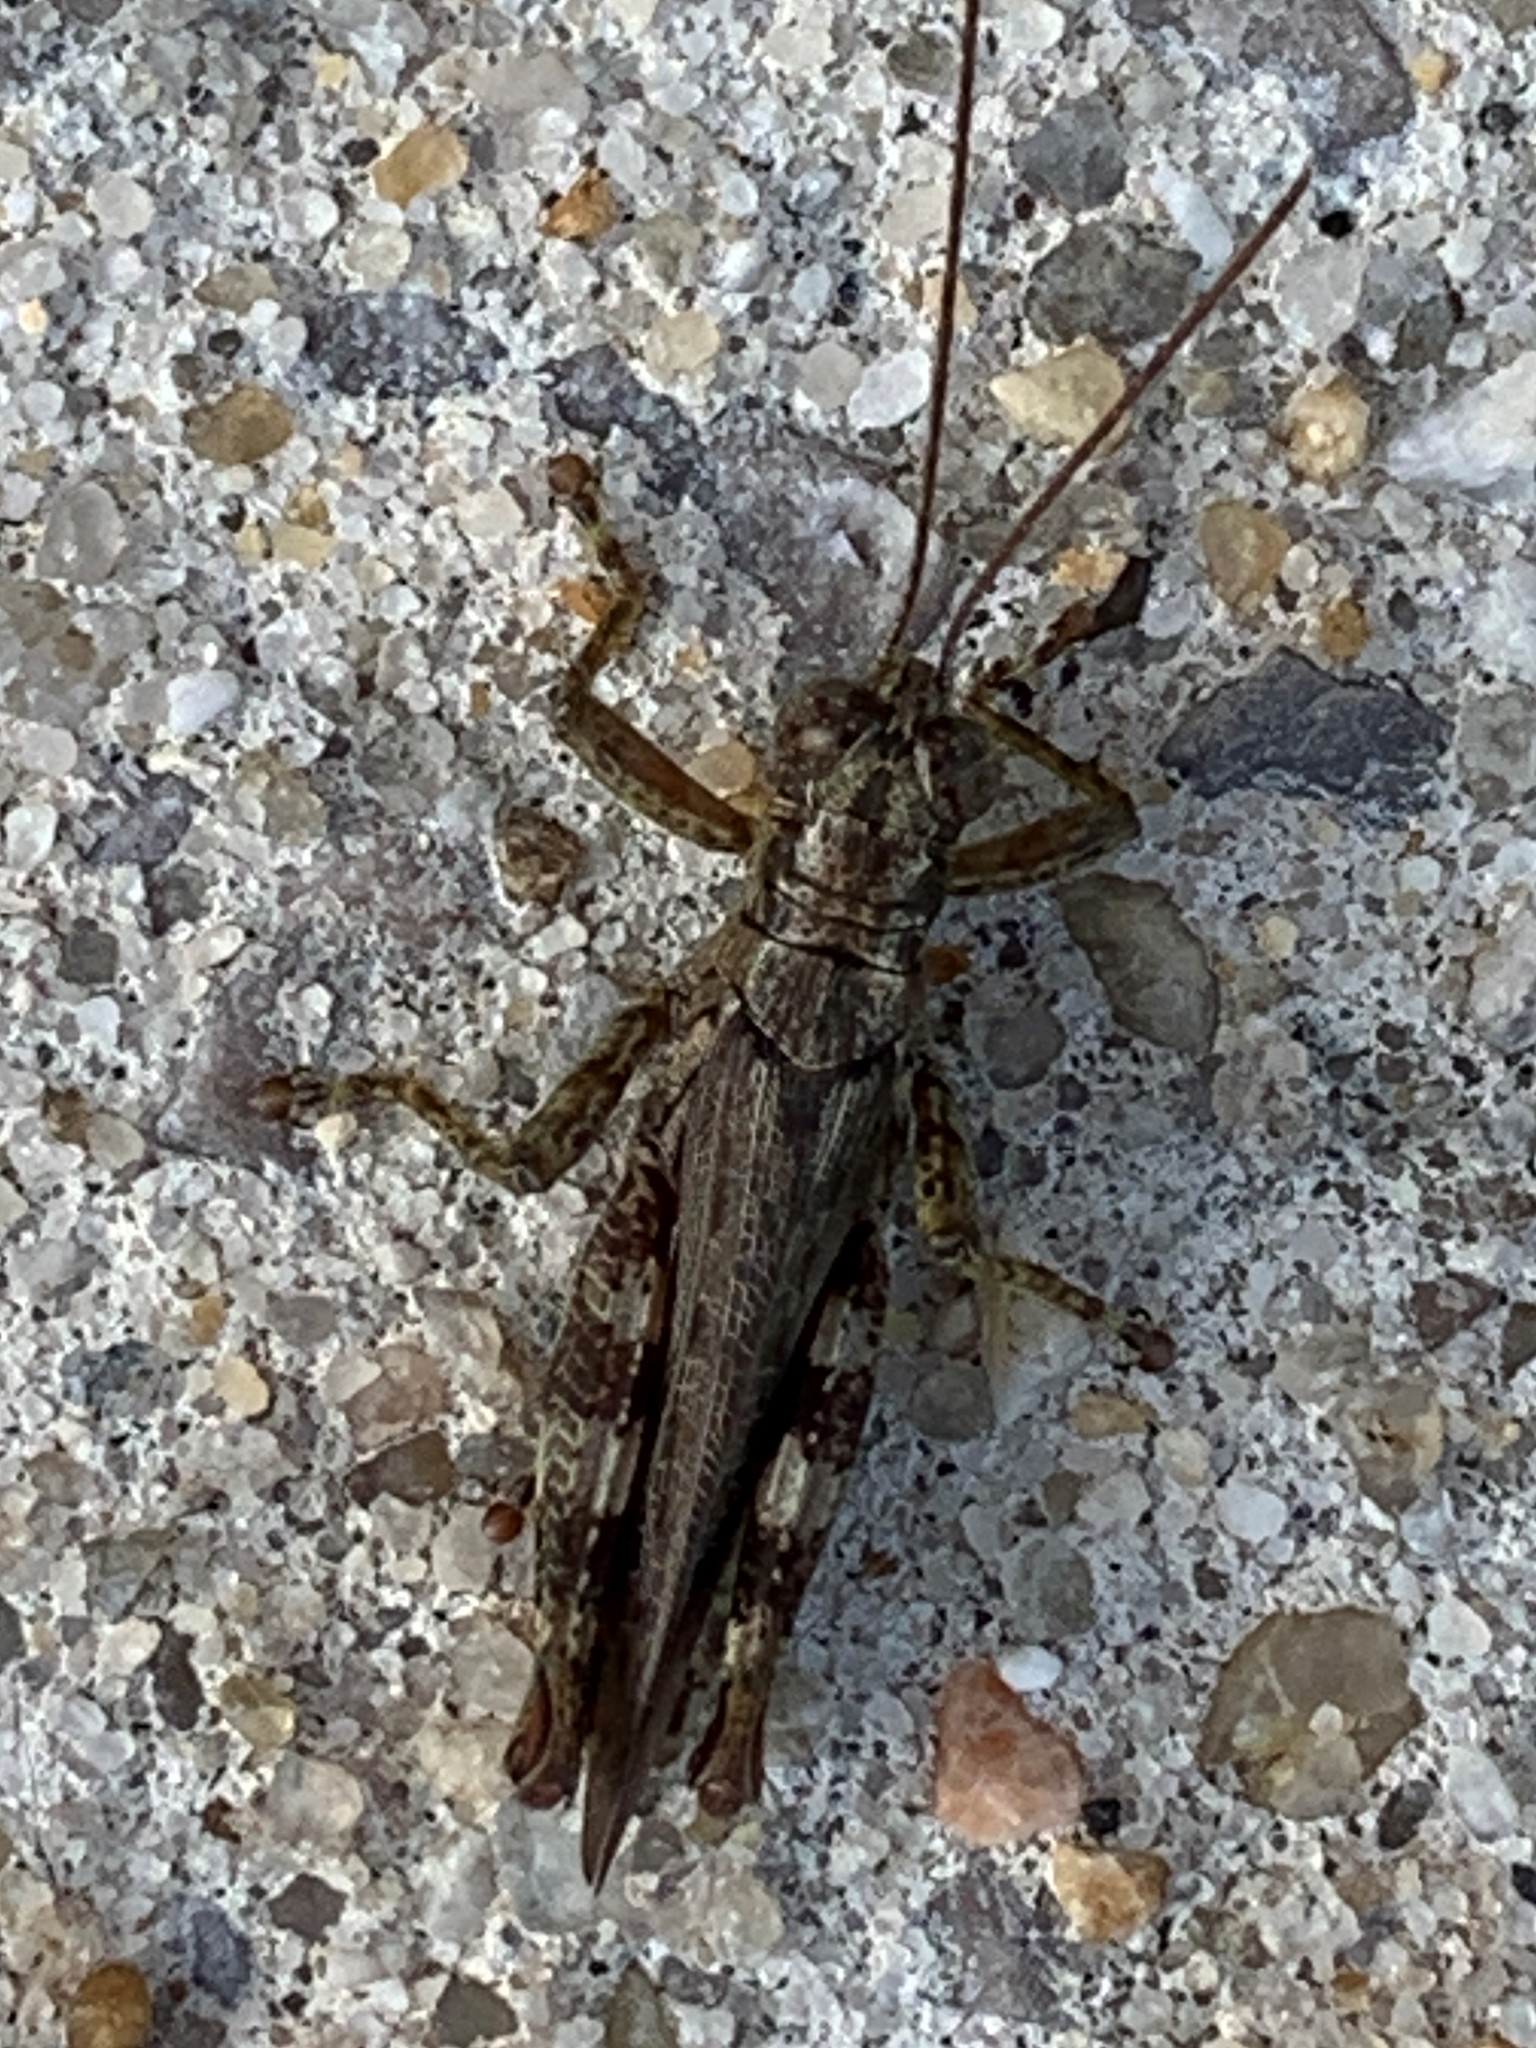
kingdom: Animalia
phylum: Arthropoda
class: Insecta
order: Orthoptera
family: Acrididae
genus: Melanoplus
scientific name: Melanoplus punctulatus
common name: Pine-tree spur-throat grasshopper
